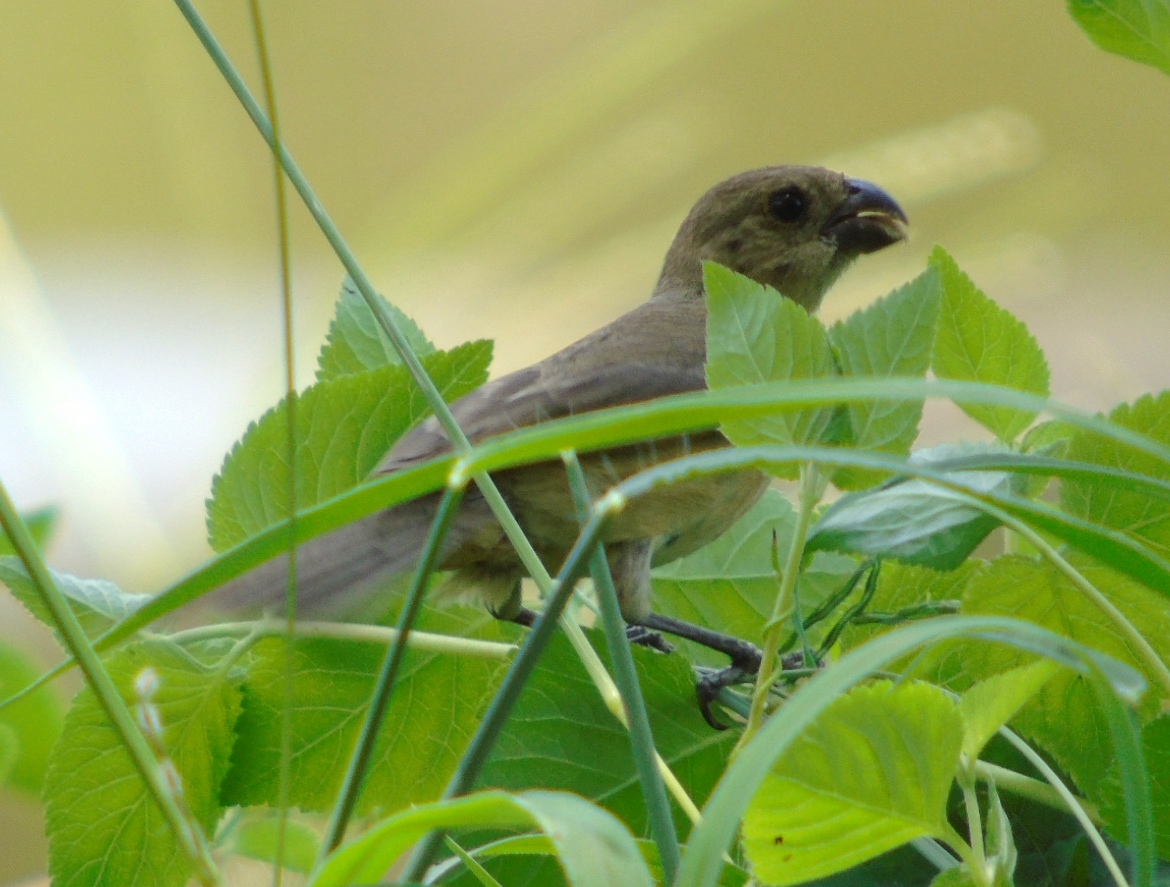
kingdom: Animalia
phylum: Chordata
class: Aves
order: Passeriformes
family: Thraupidae
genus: Sporophila
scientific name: Sporophila torqueola
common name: White-collared seedeater
